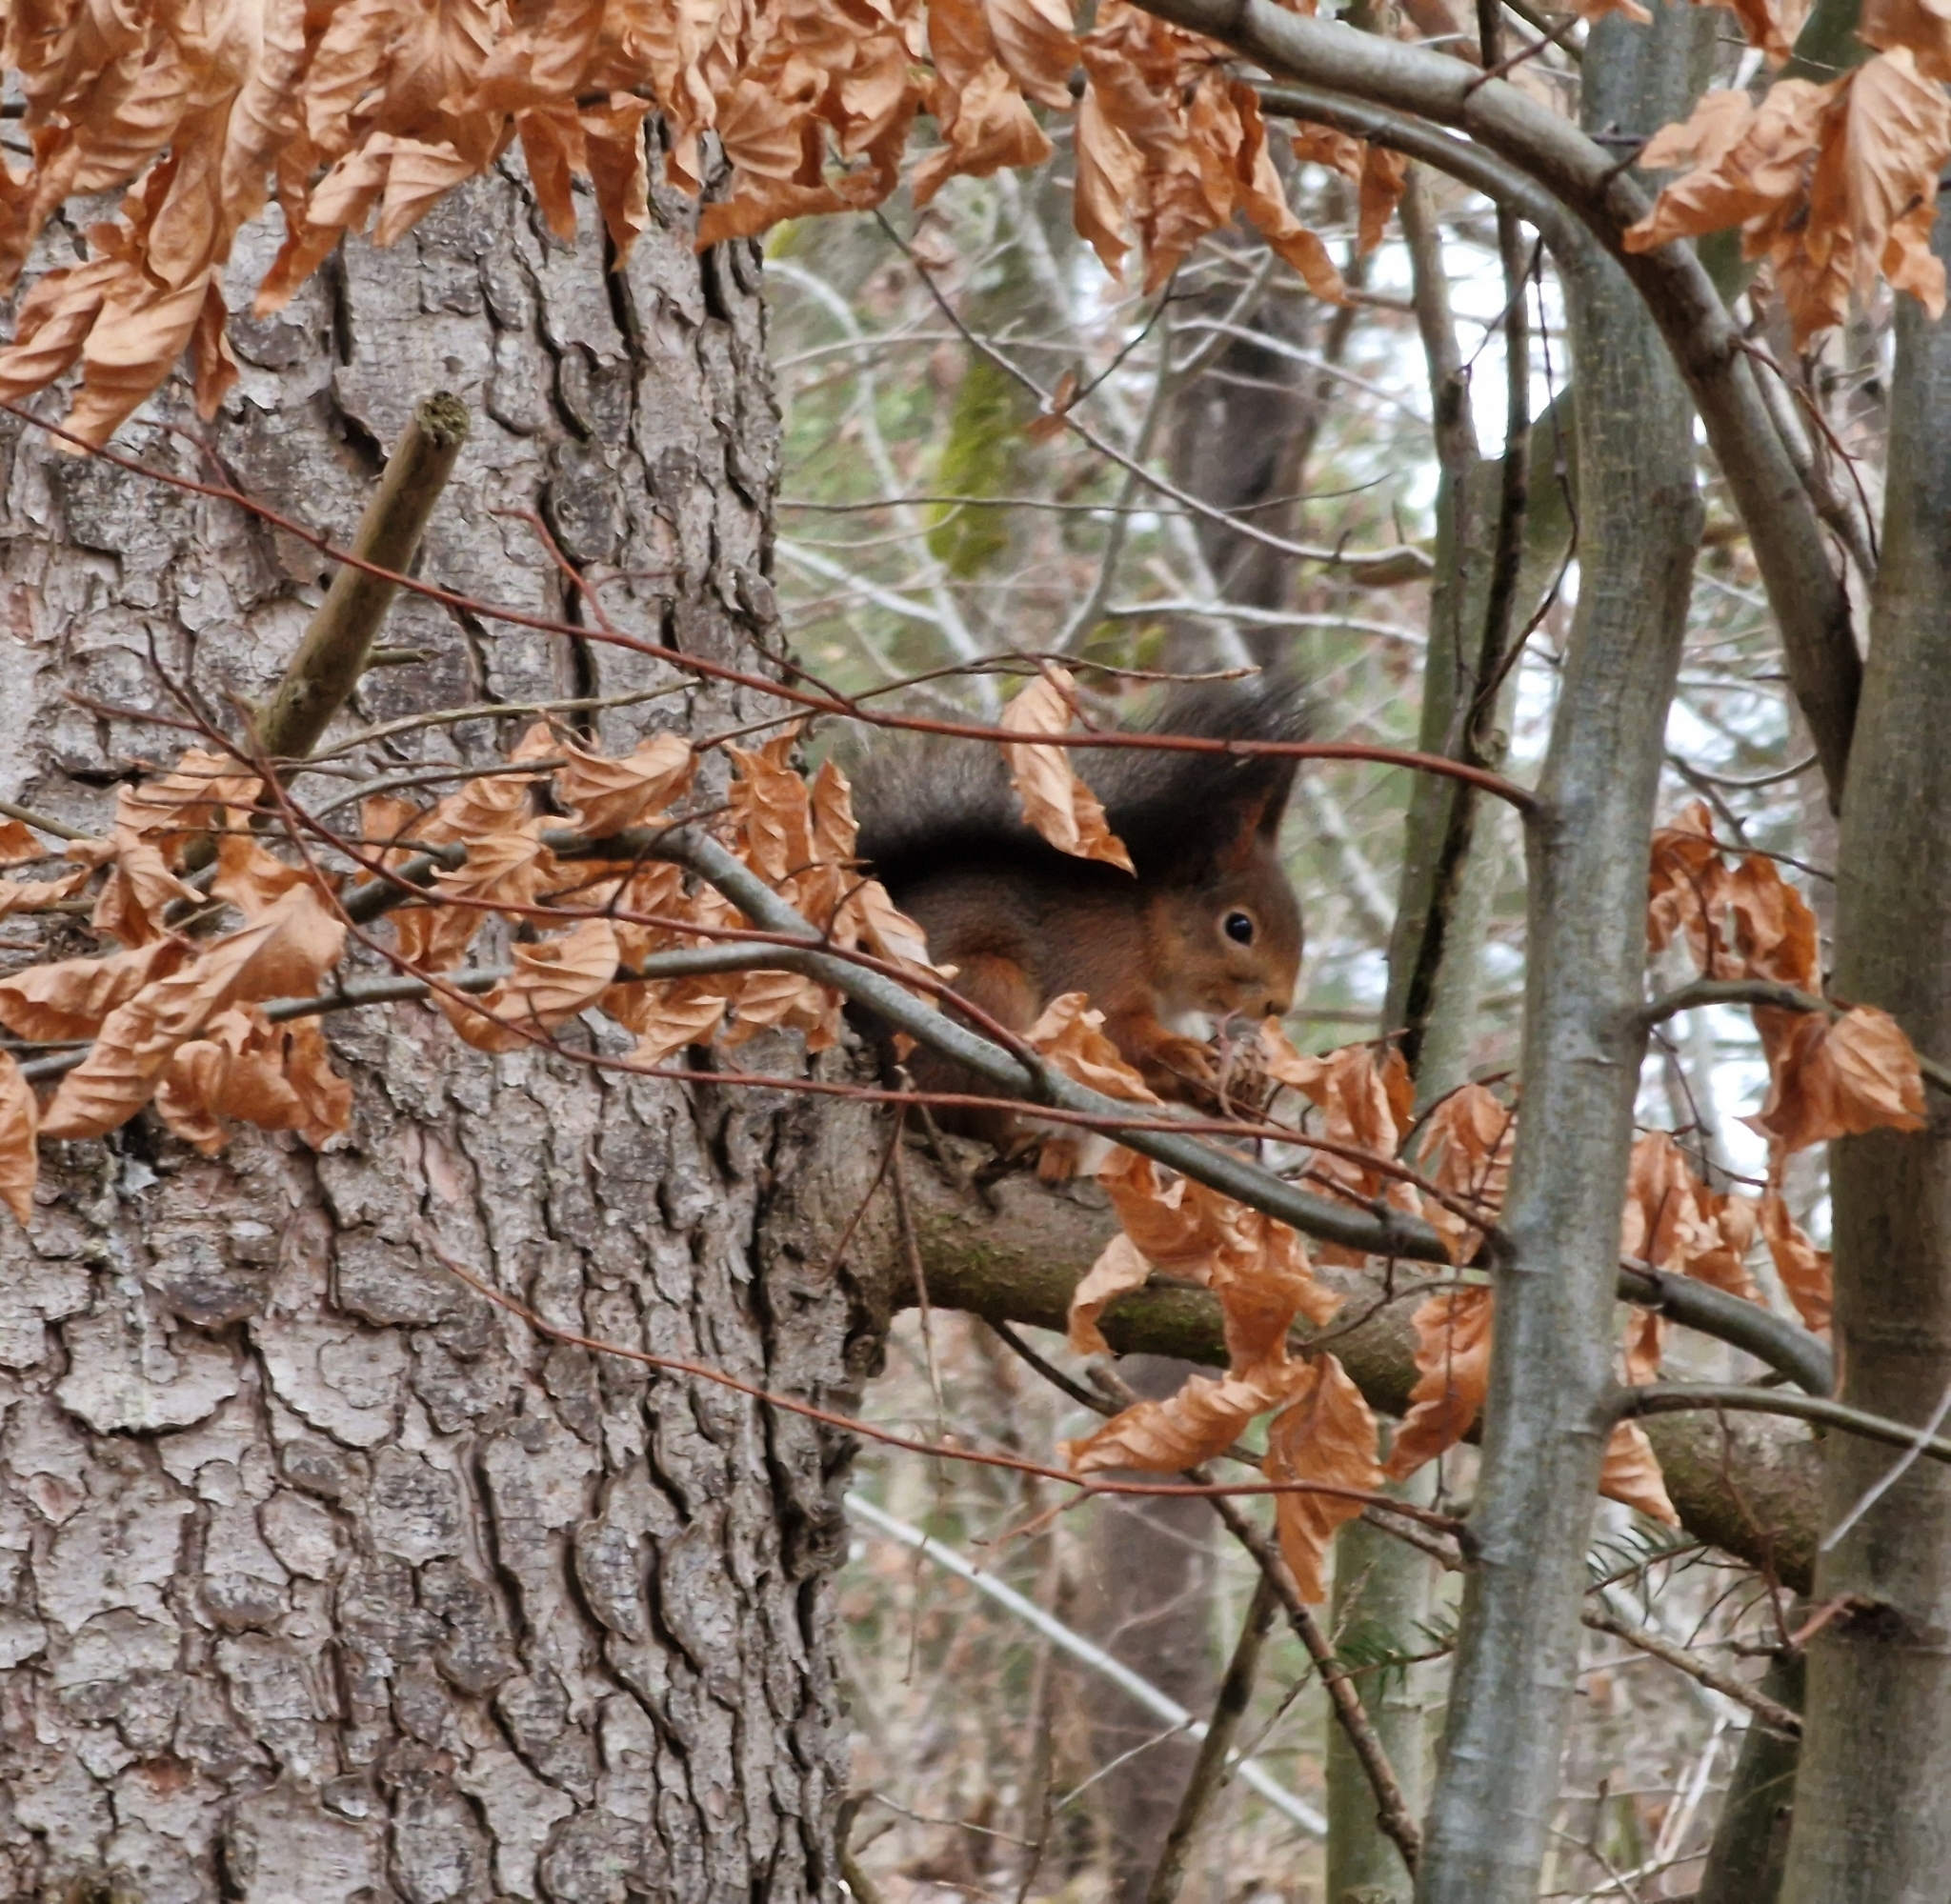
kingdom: Animalia
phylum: Chordata
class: Mammalia
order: Rodentia
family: Sciuridae
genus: Sciurus
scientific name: Sciurus vulgaris
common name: Eurasian red squirrel
